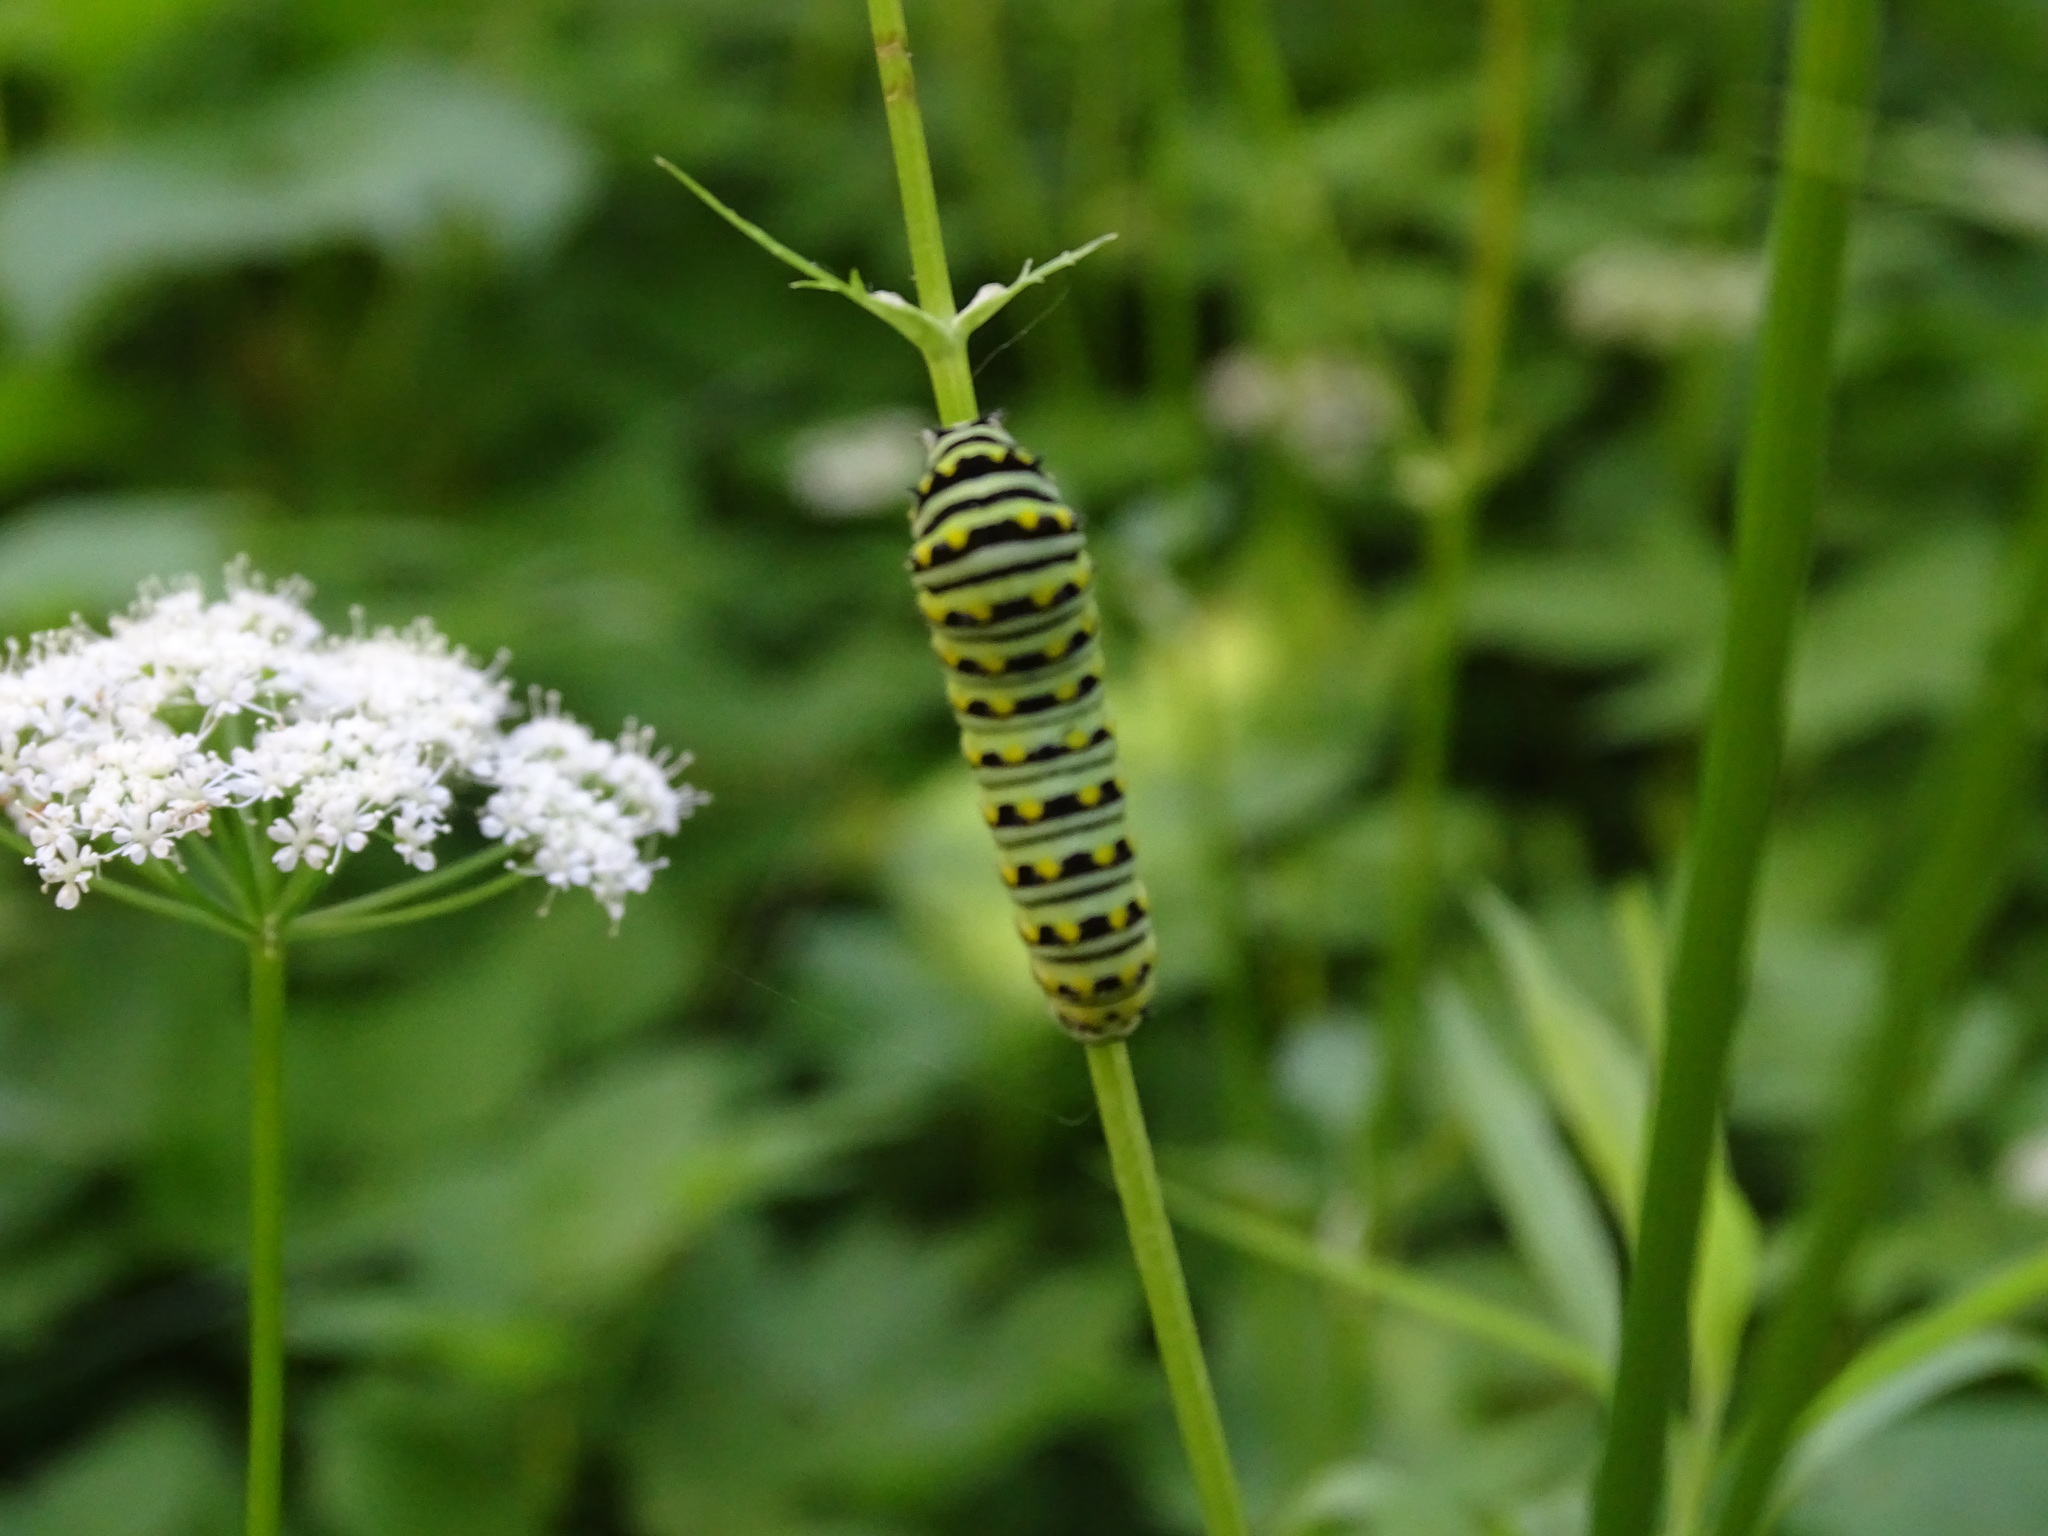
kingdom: Animalia
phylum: Arthropoda
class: Insecta
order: Lepidoptera
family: Papilionidae
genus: Papilio
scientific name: Papilio polyxenes
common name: Black swallowtail
